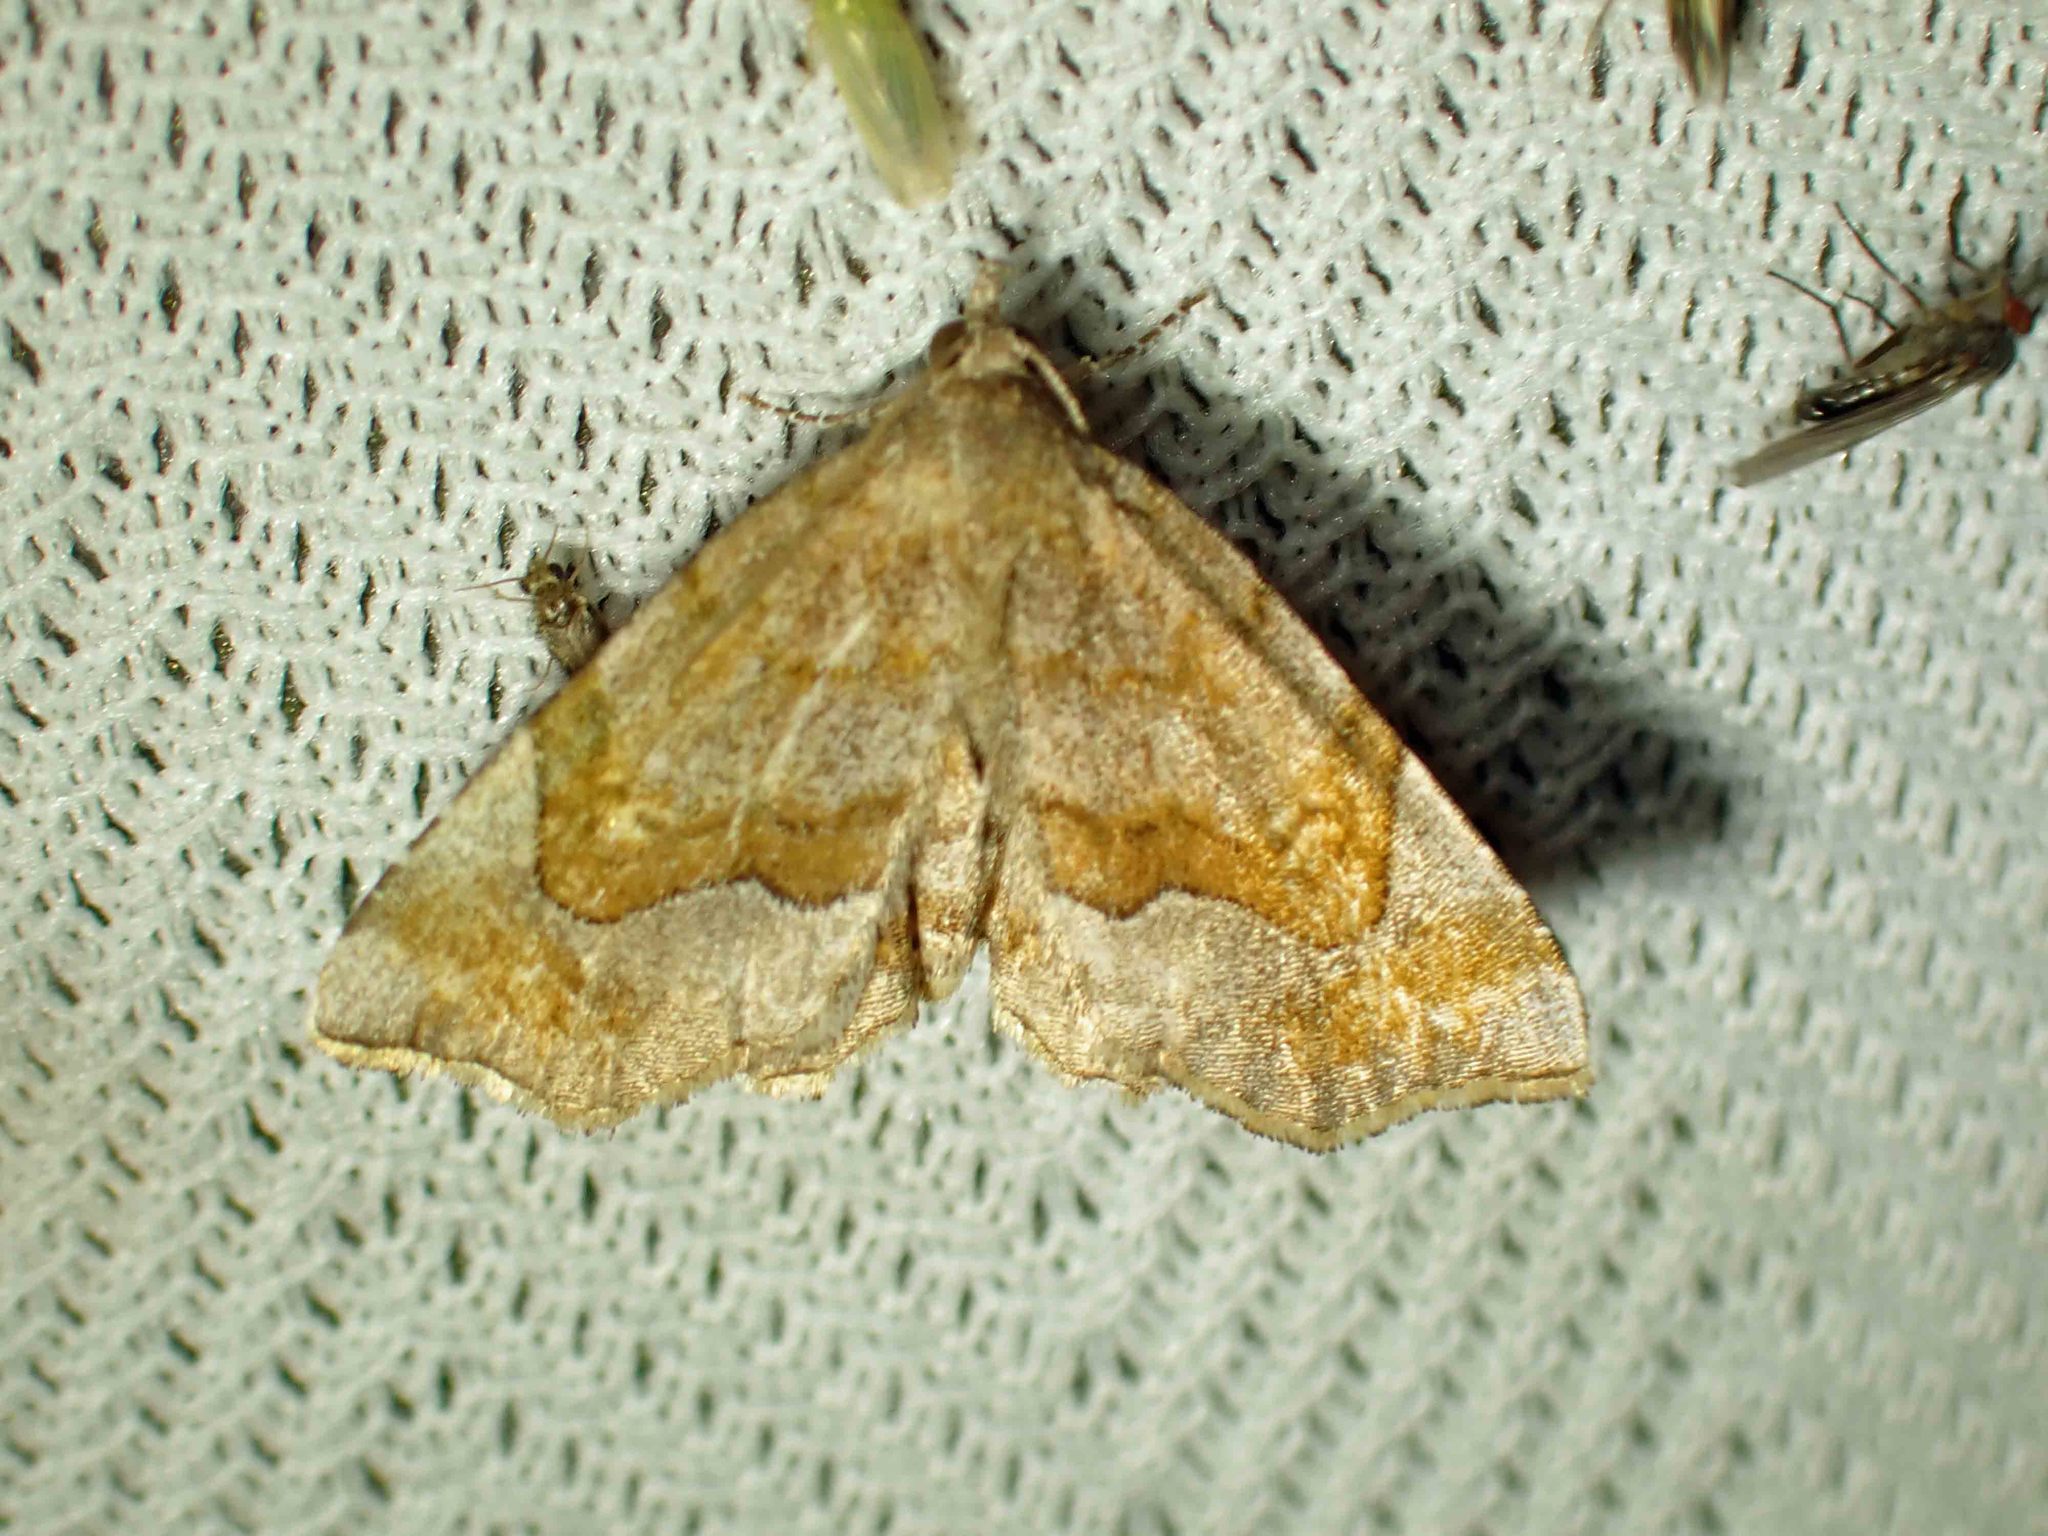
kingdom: Animalia
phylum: Arthropoda
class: Insecta
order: Lepidoptera
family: Erebidae
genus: Pangrapta
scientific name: Pangrapta decoralis
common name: Decorated owlet
